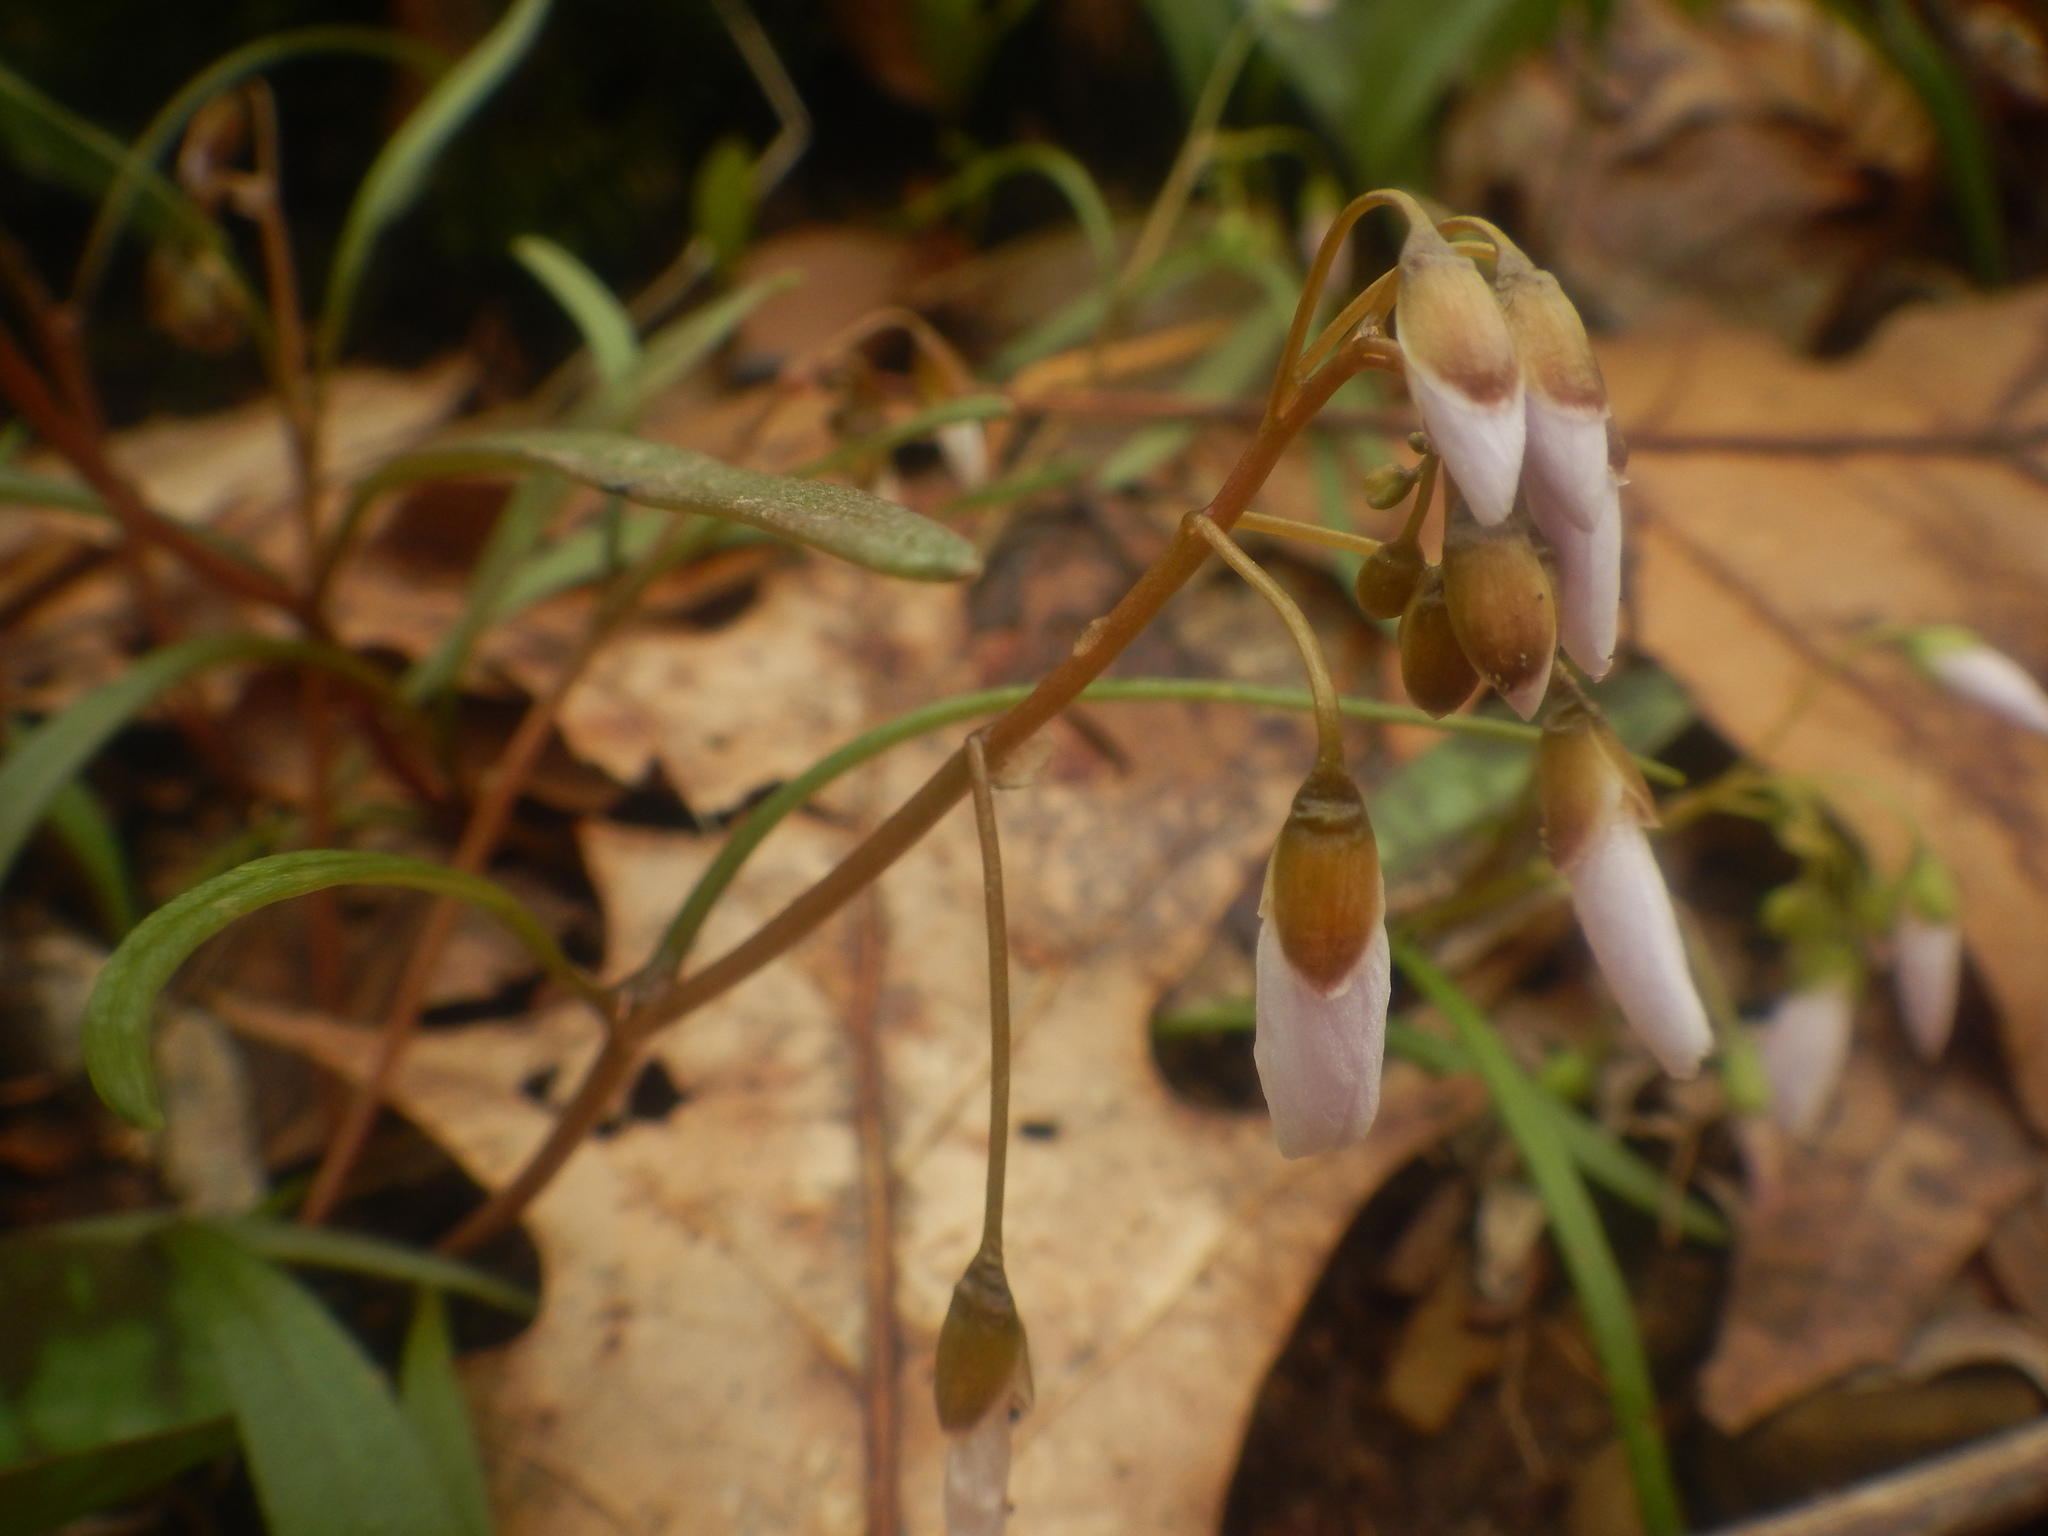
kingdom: Plantae
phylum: Tracheophyta
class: Magnoliopsida
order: Caryophyllales
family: Montiaceae
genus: Claytonia
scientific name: Claytonia virginica
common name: Virginia springbeauty
